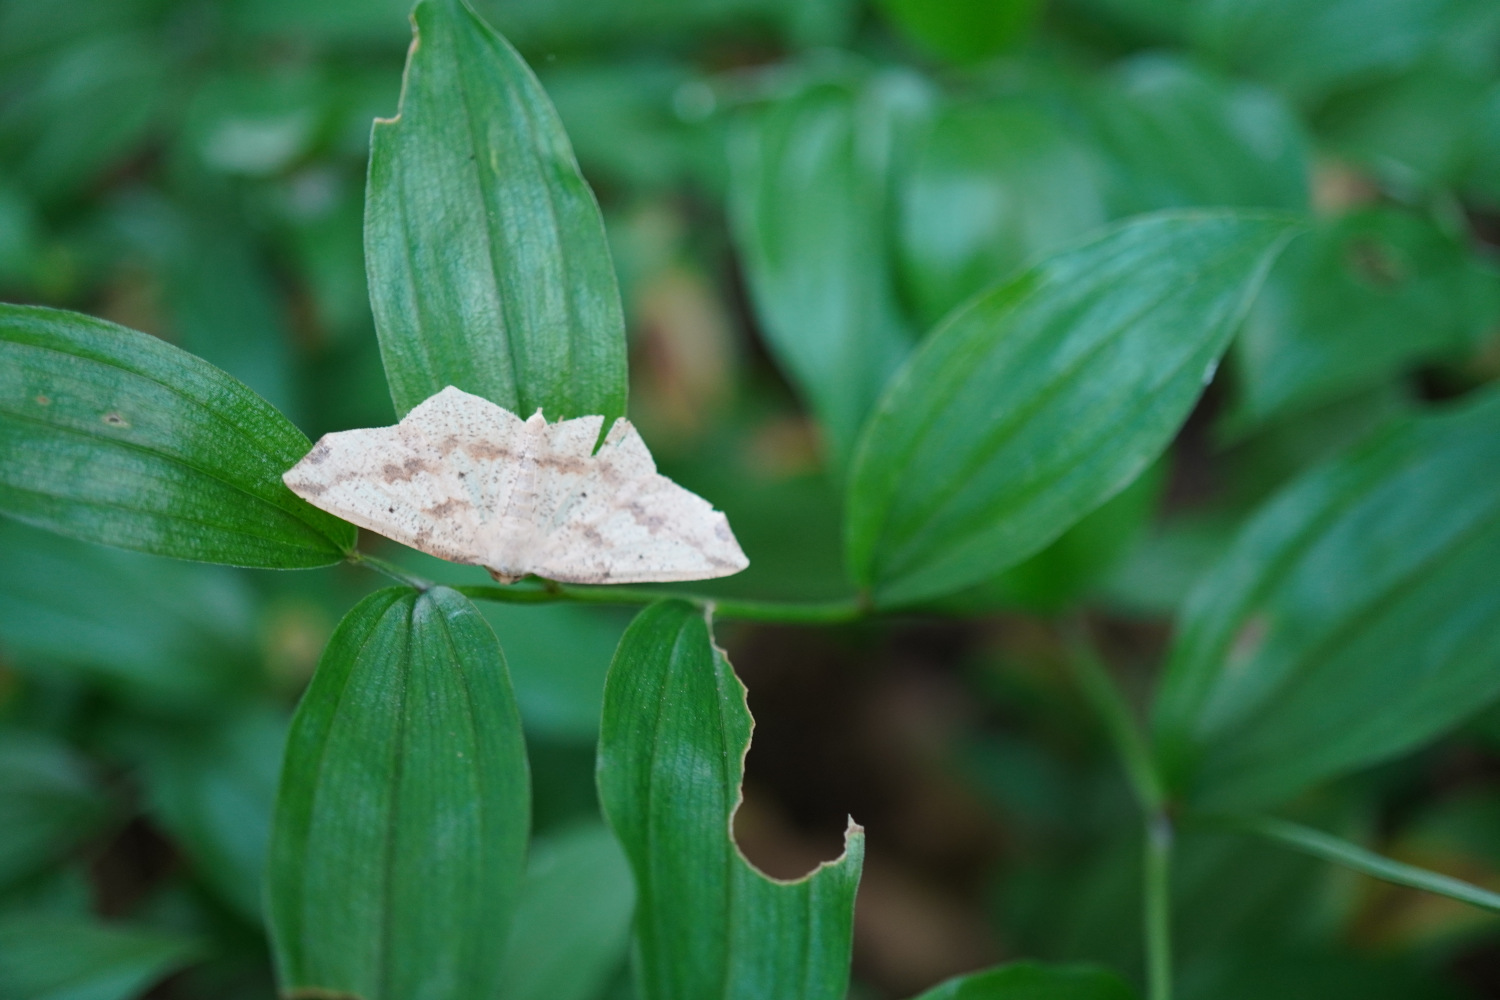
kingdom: Animalia
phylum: Arthropoda
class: Insecta
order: Lepidoptera
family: Geometridae
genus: Pareclipsis
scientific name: Pareclipsis gracilis
